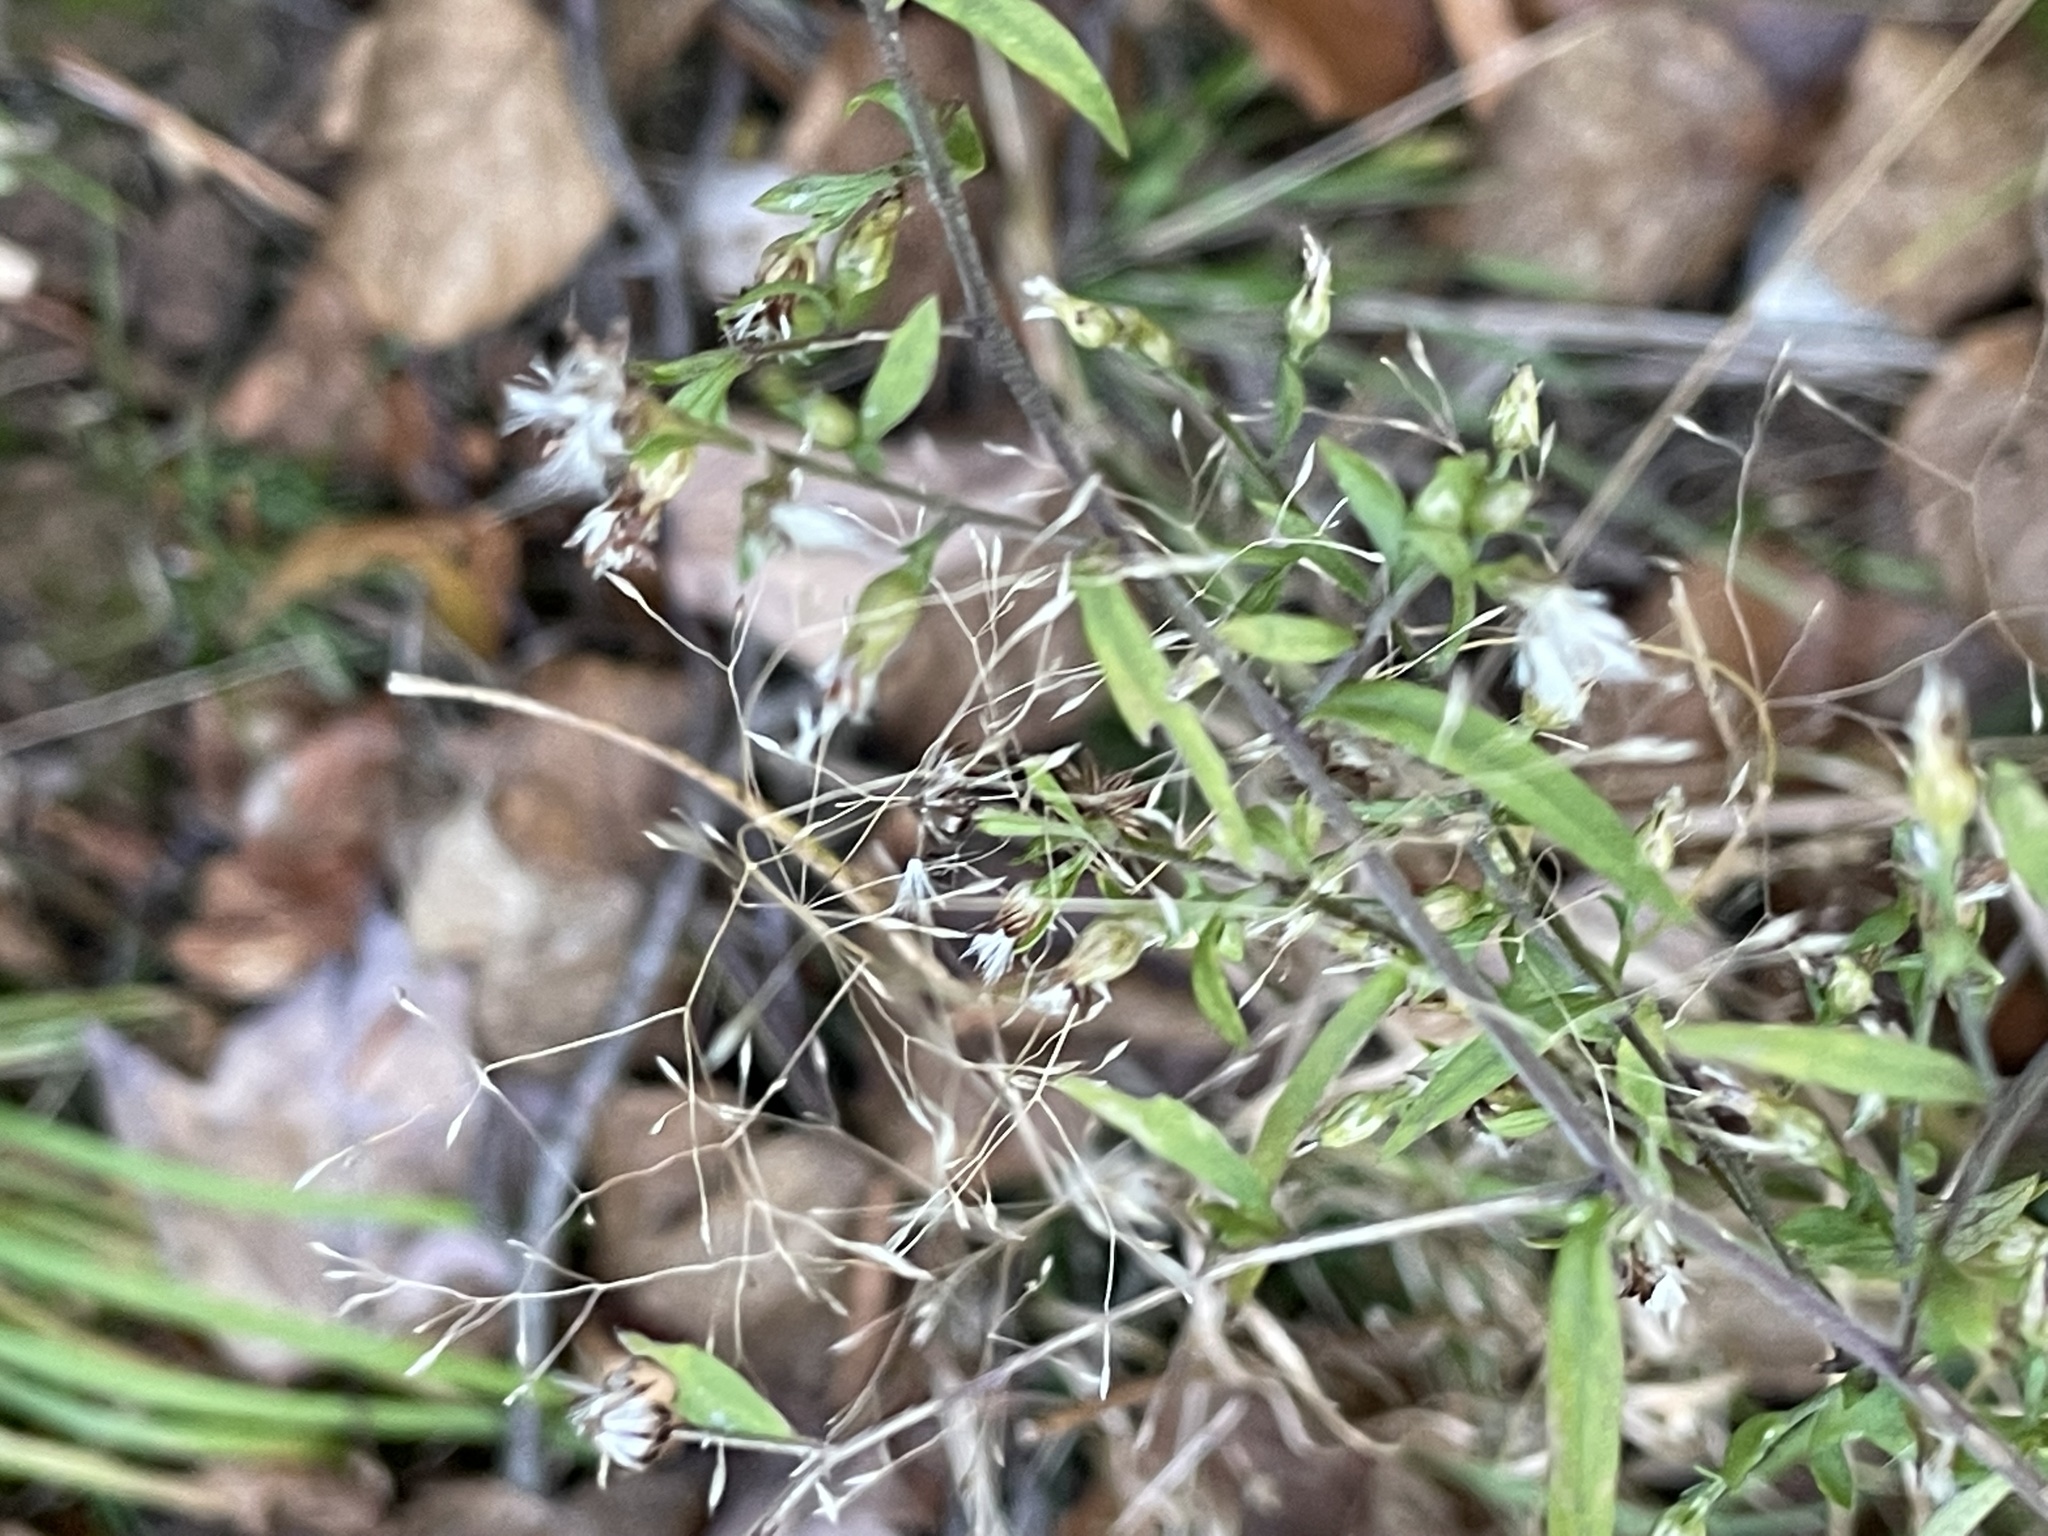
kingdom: Plantae
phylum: Tracheophyta
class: Magnoliopsida
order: Asterales
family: Asteraceae
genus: Symphyotrichum
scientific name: Symphyotrichum lateriflorum
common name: Calico aster
